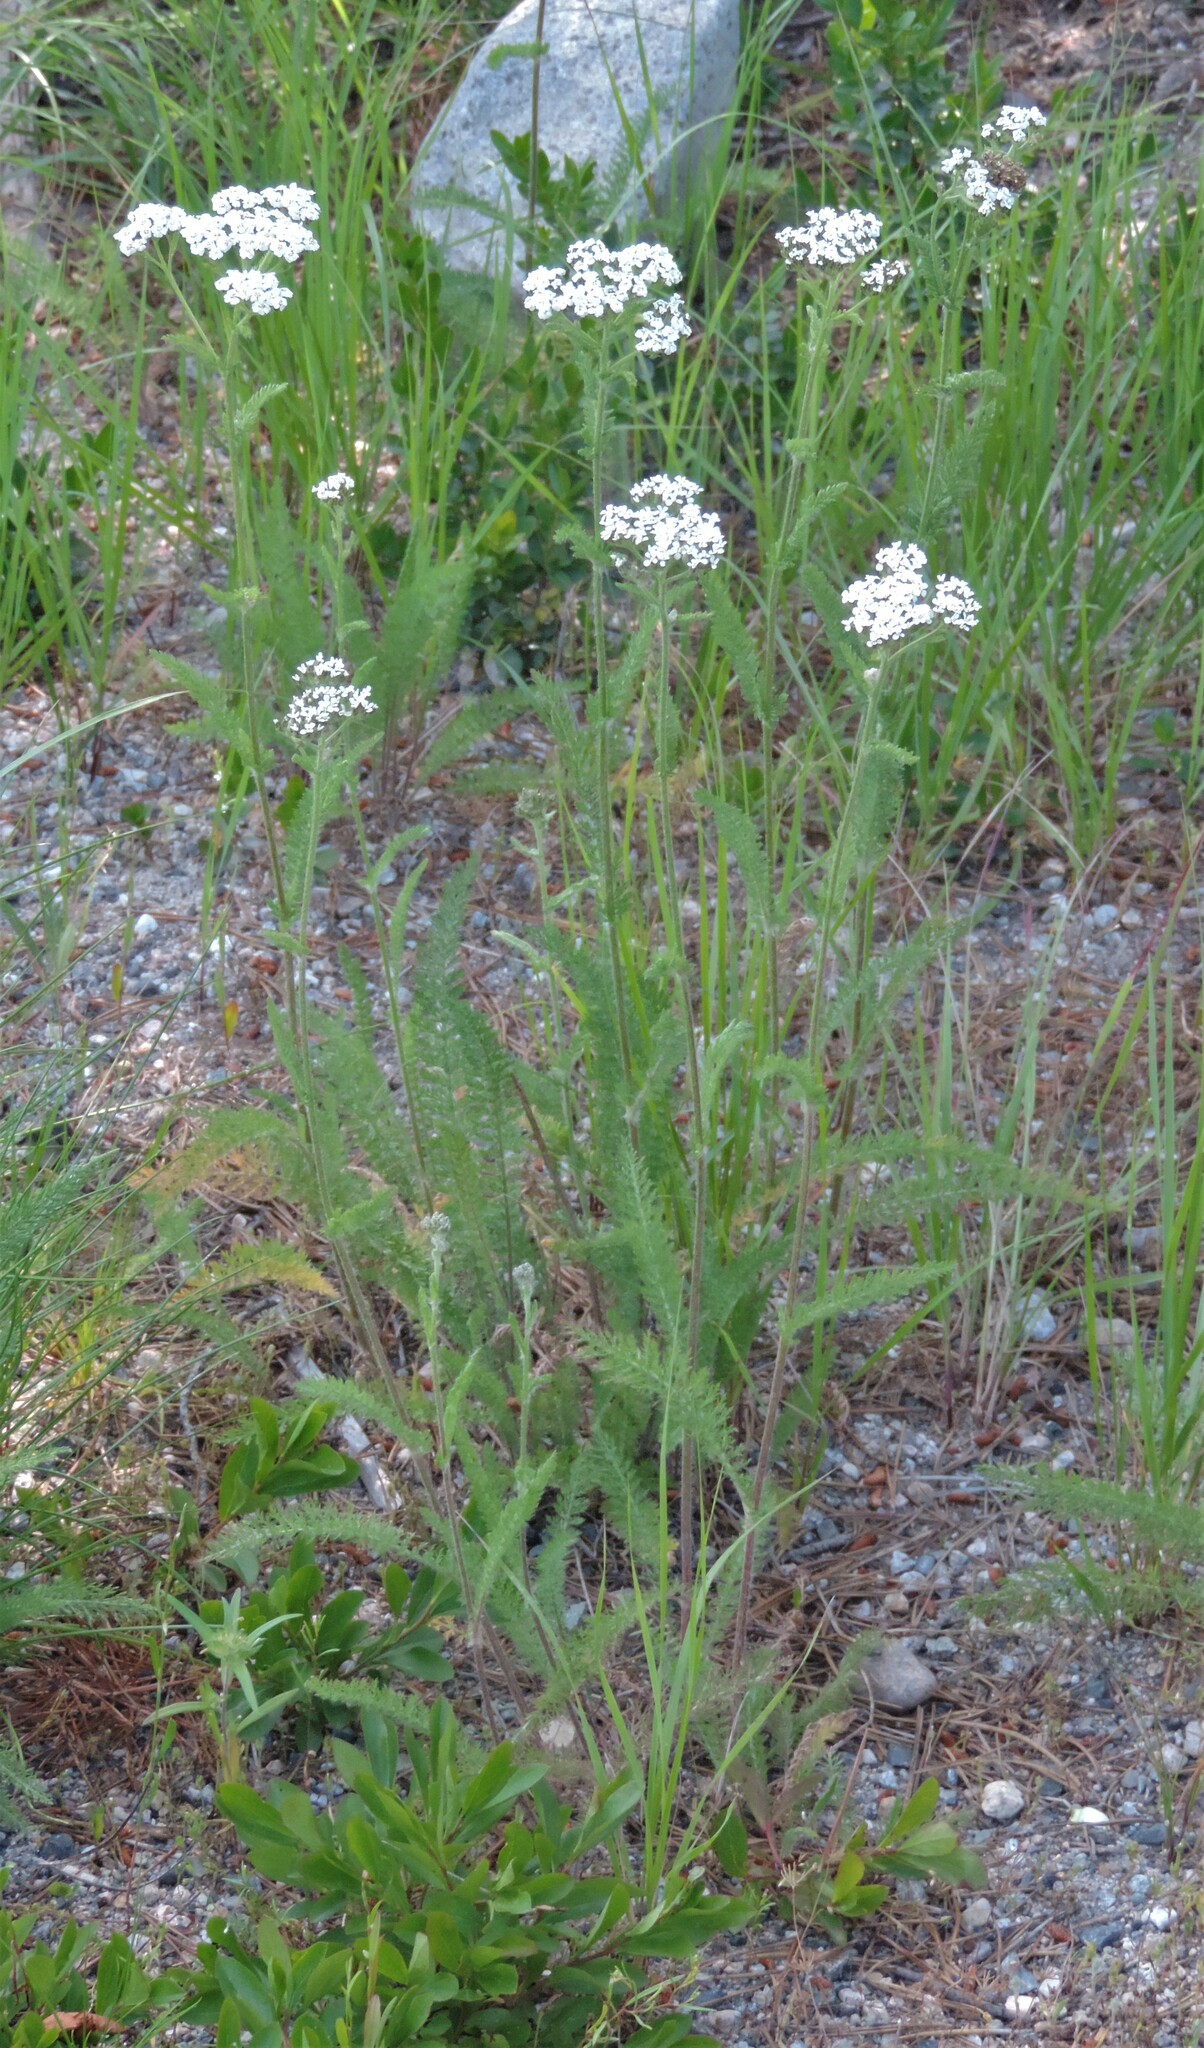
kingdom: Plantae
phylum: Tracheophyta
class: Magnoliopsida
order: Asterales
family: Asteraceae
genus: Achillea
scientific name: Achillea millefolium
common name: Yarrow
